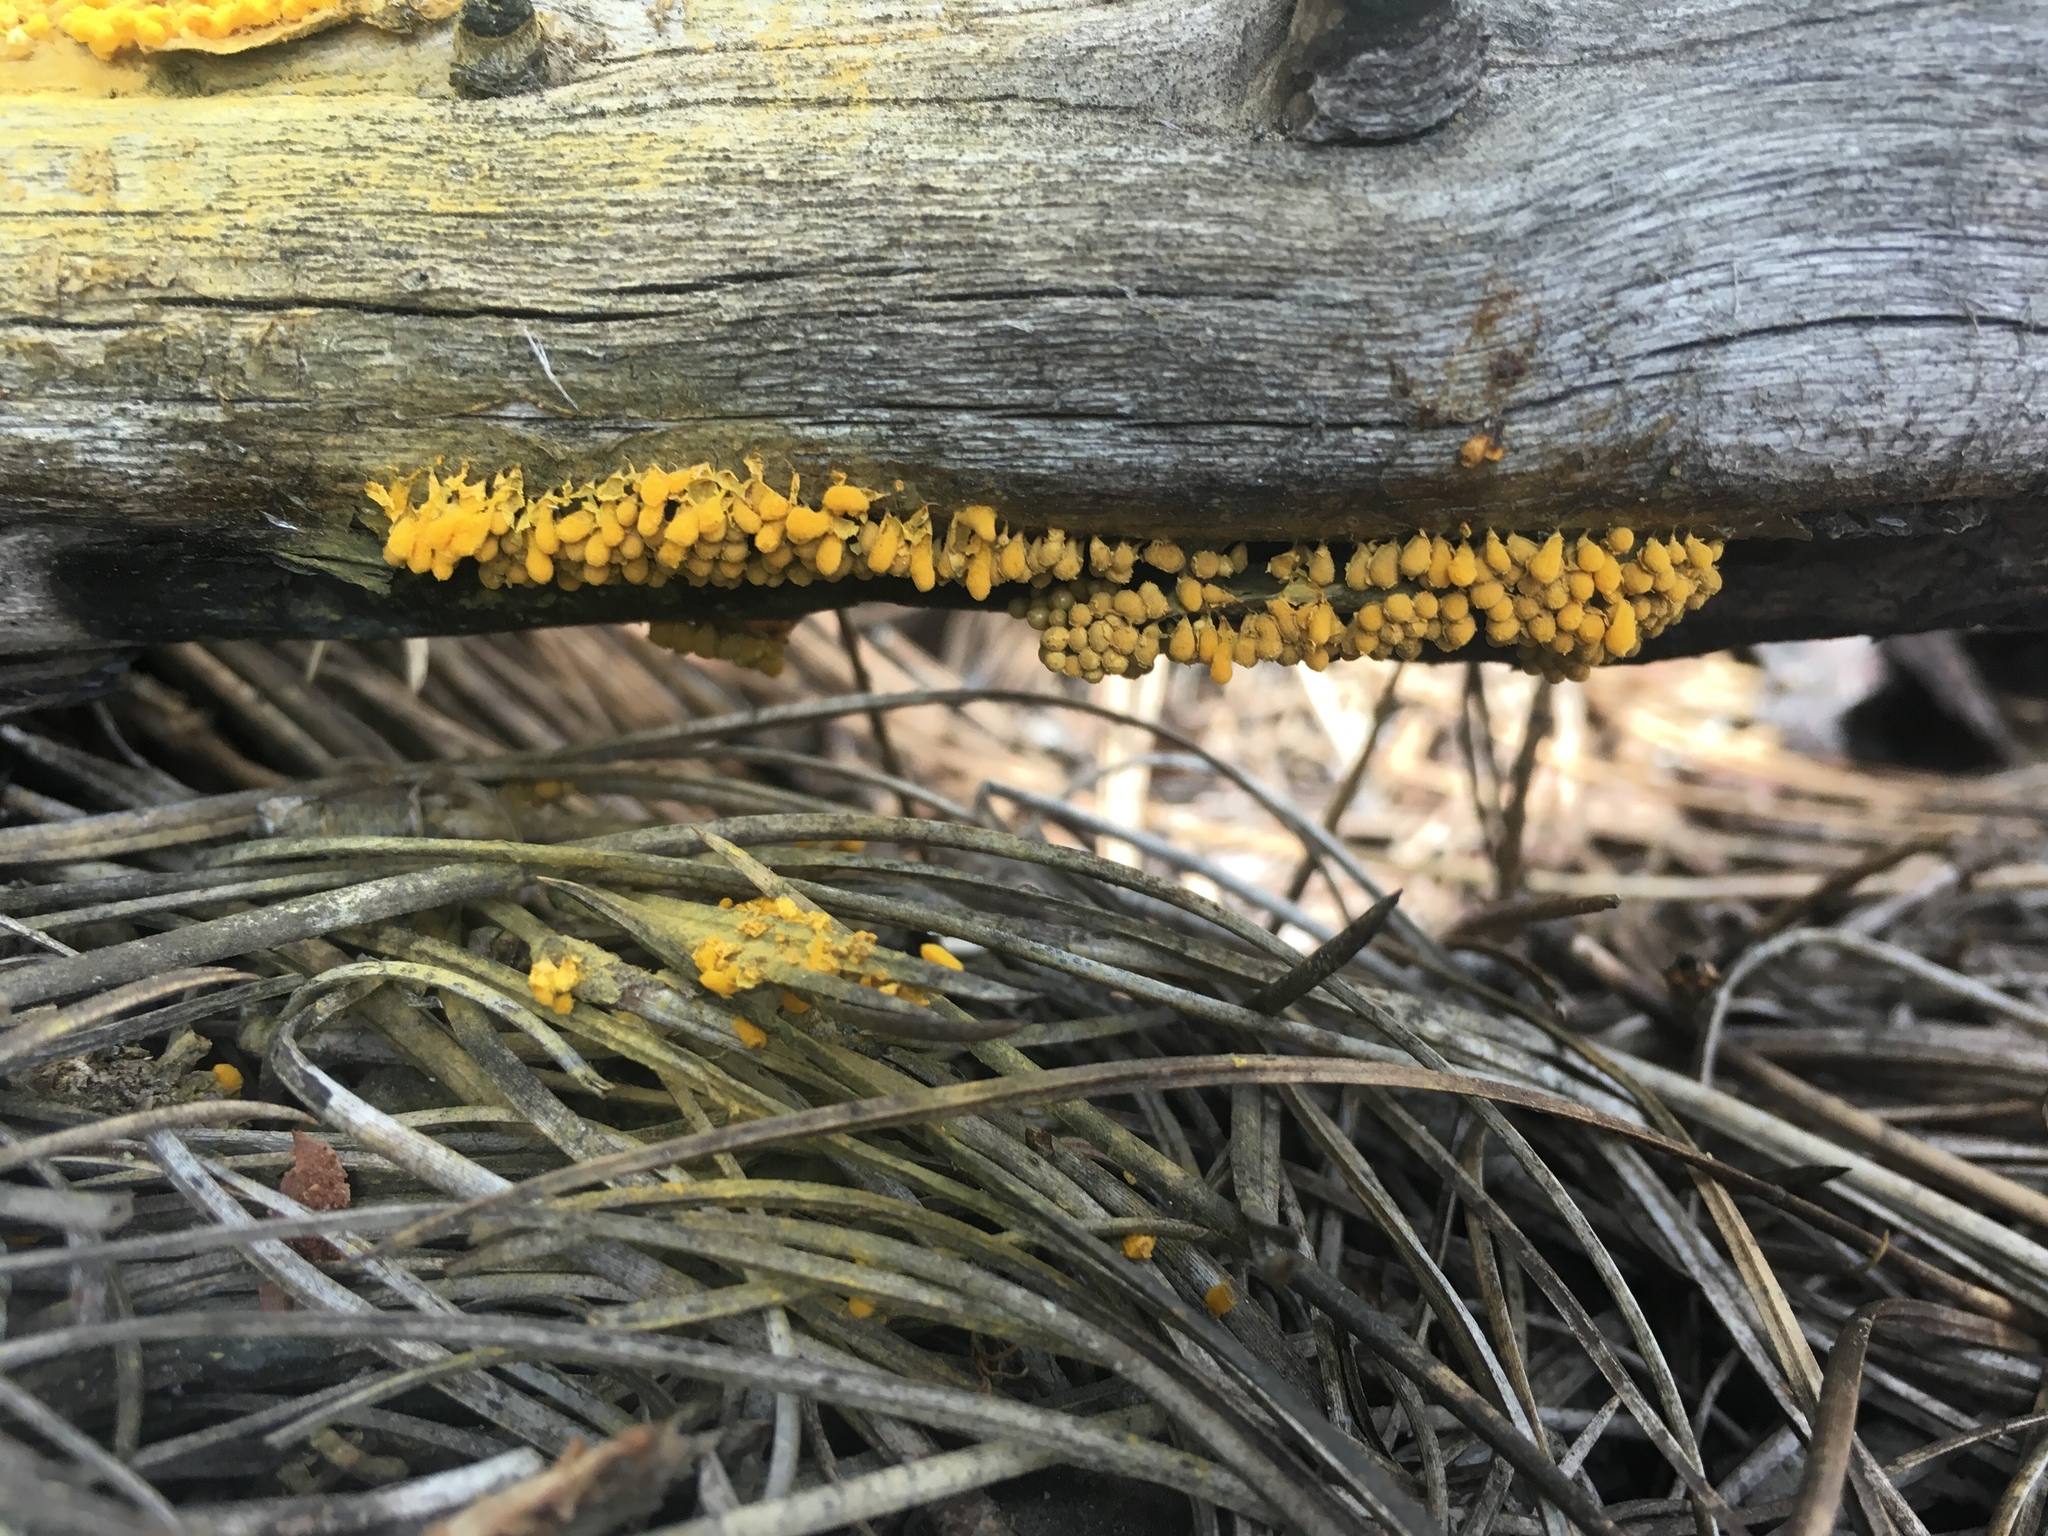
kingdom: Protozoa
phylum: Mycetozoa
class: Myxomycetes
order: Trichiales
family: Arcyriaceae
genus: Arcyria
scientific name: Arcyria versicolor
